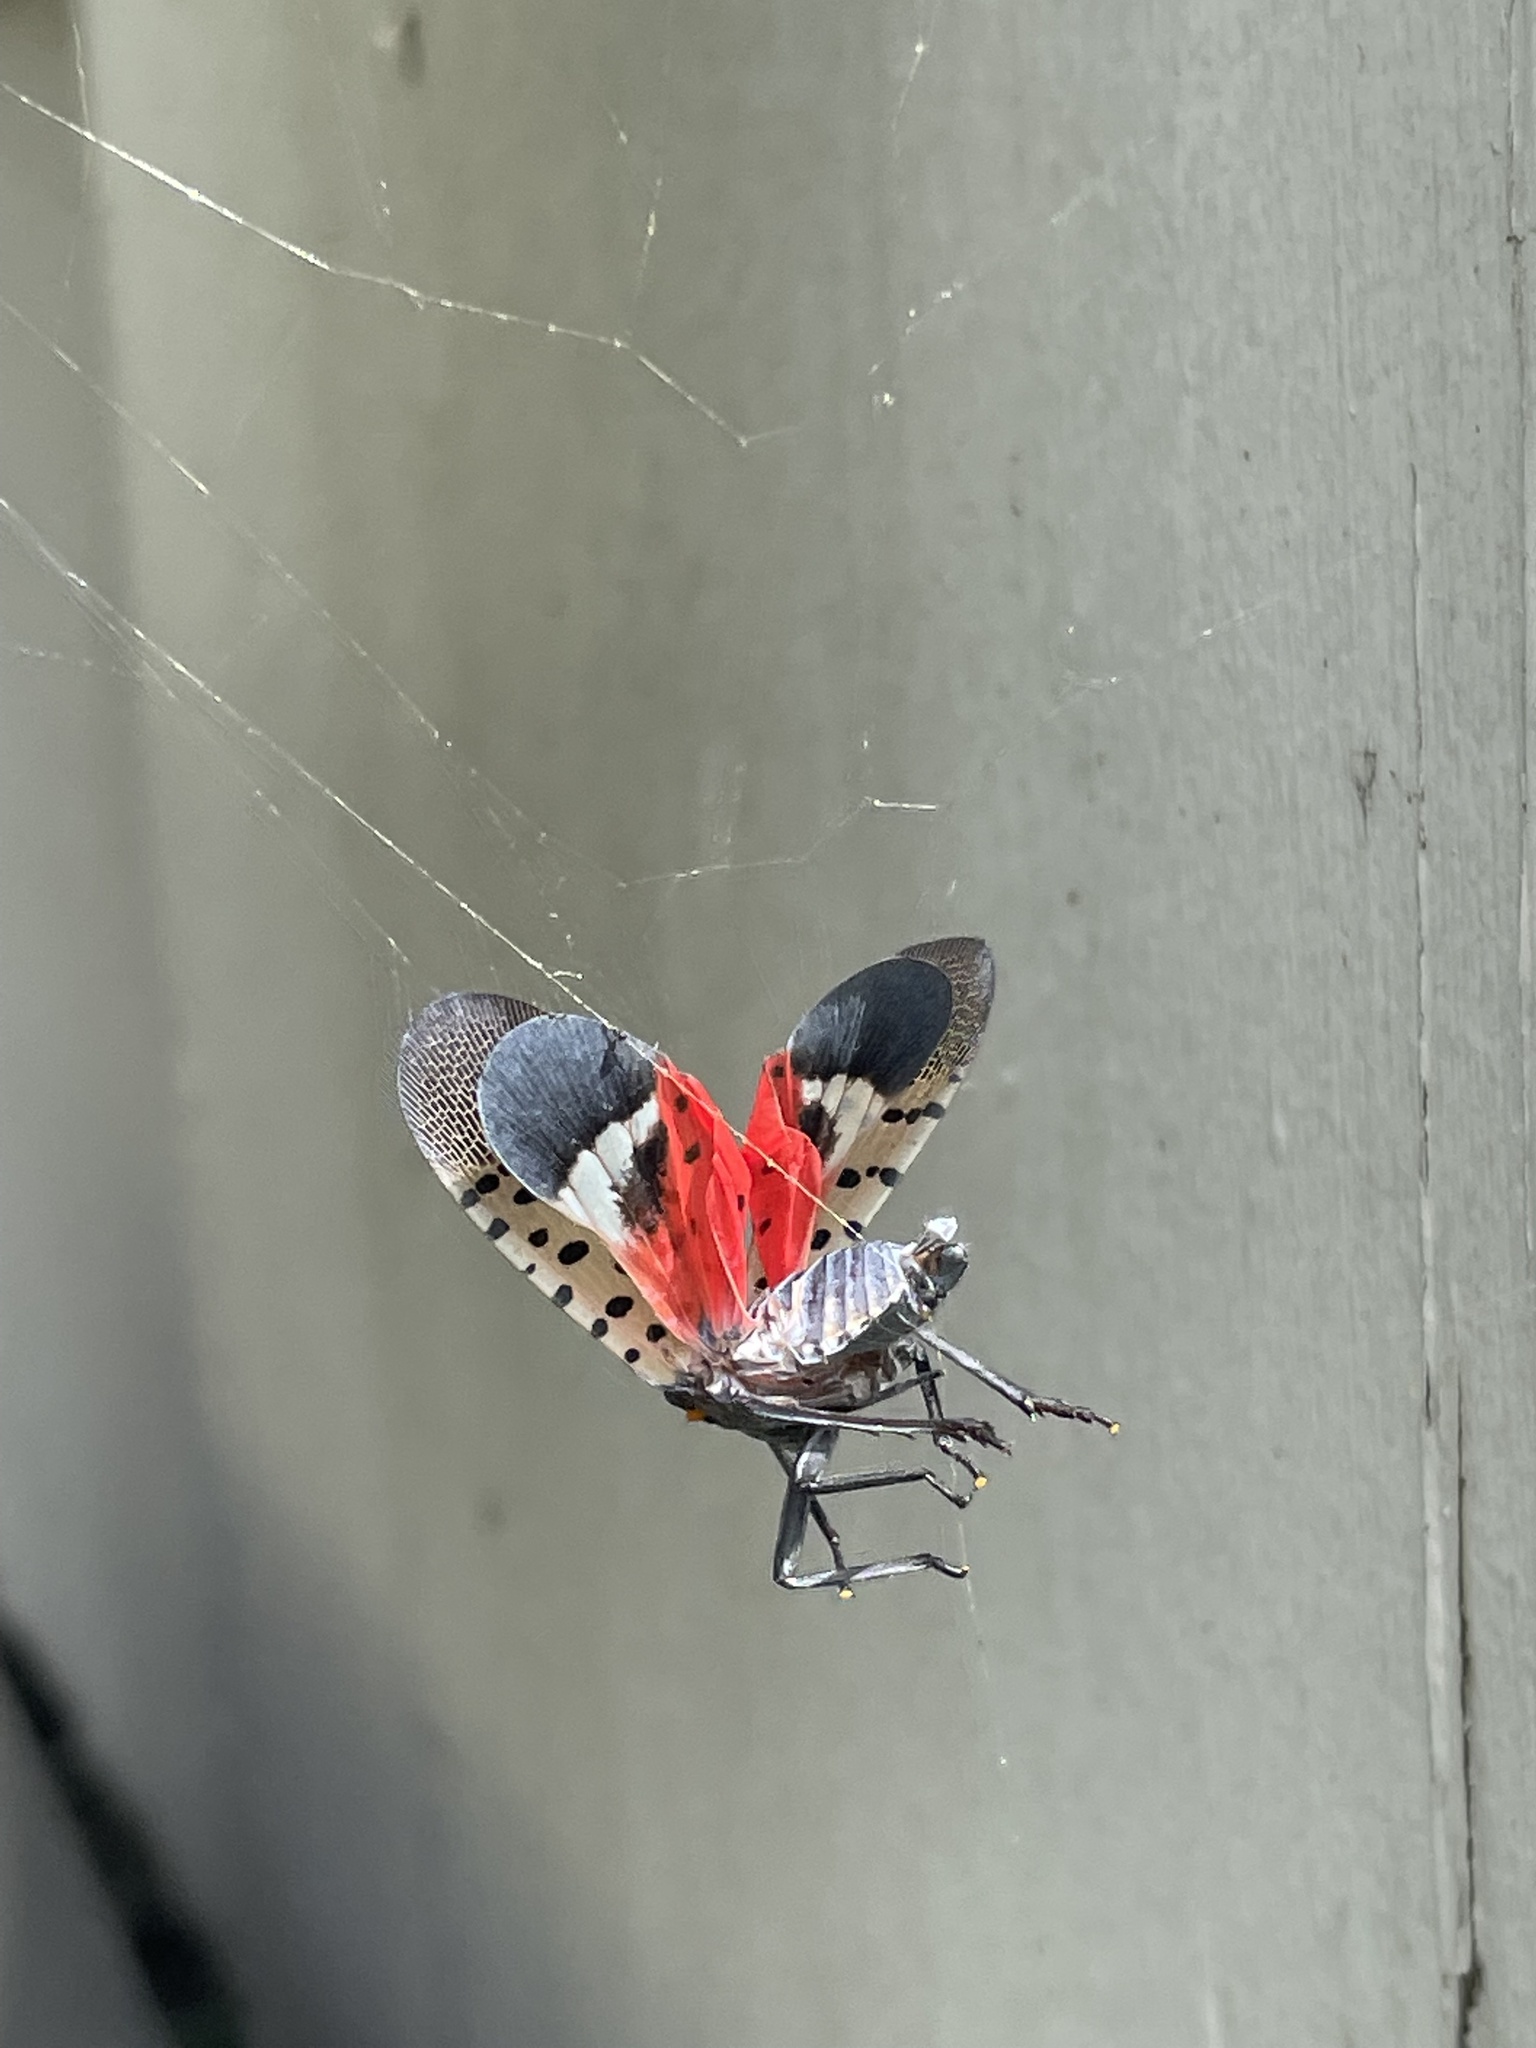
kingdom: Animalia
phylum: Arthropoda
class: Insecta
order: Hemiptera
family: Fulgoridae
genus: Lycorma
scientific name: Lycorma delicatula
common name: Spotted lanternfly
